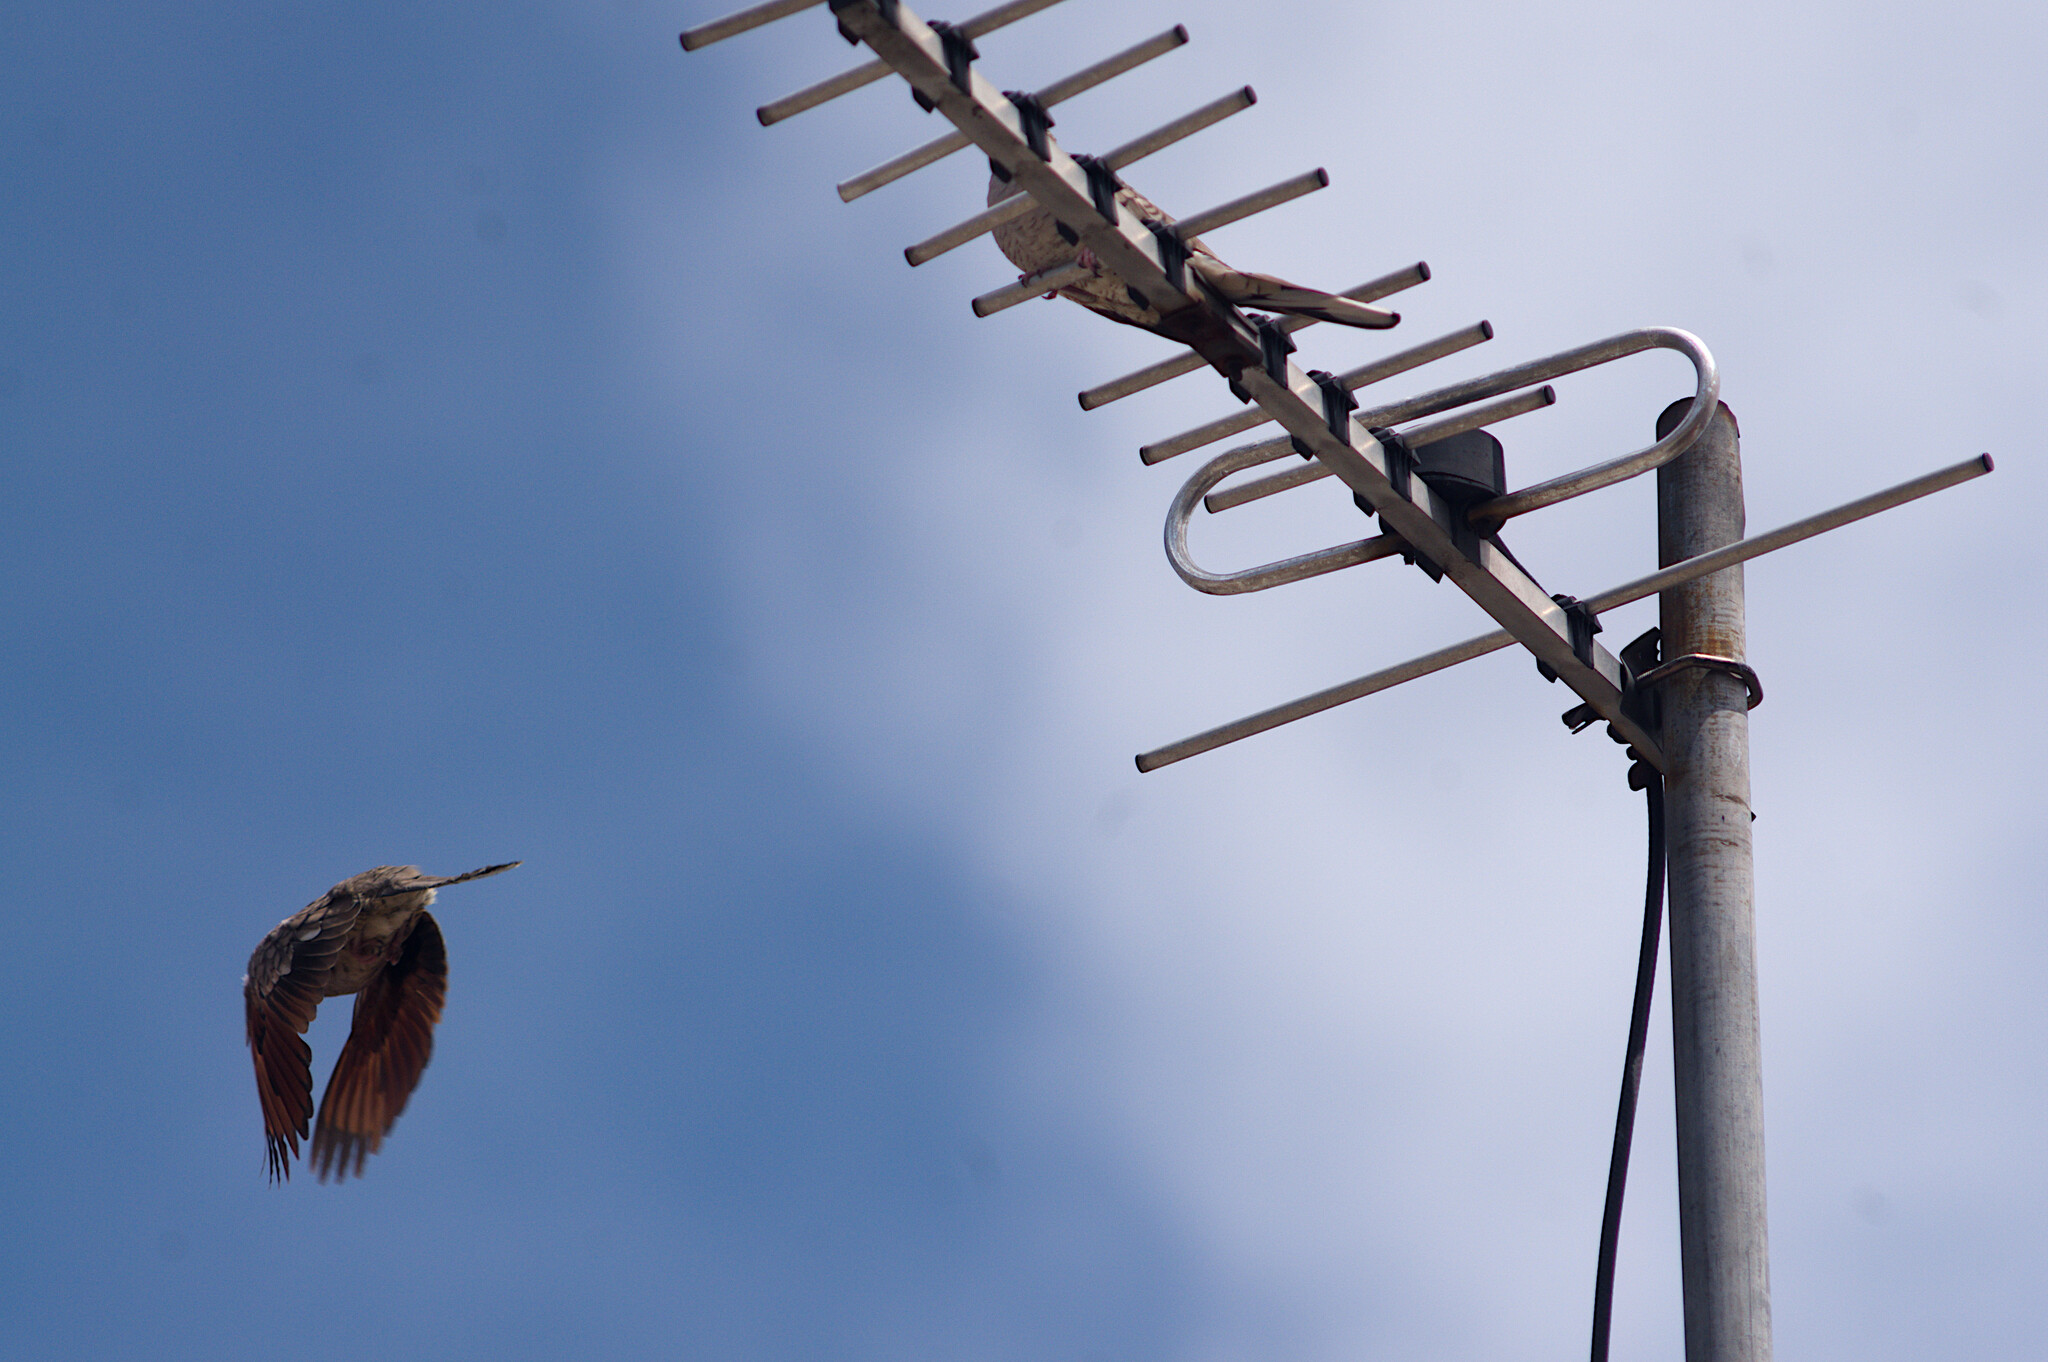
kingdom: Animalia
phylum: Chordata
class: Aves
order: Columbiformes
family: Columbidae
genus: Columbina
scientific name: Columbina inca
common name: Inca dove
